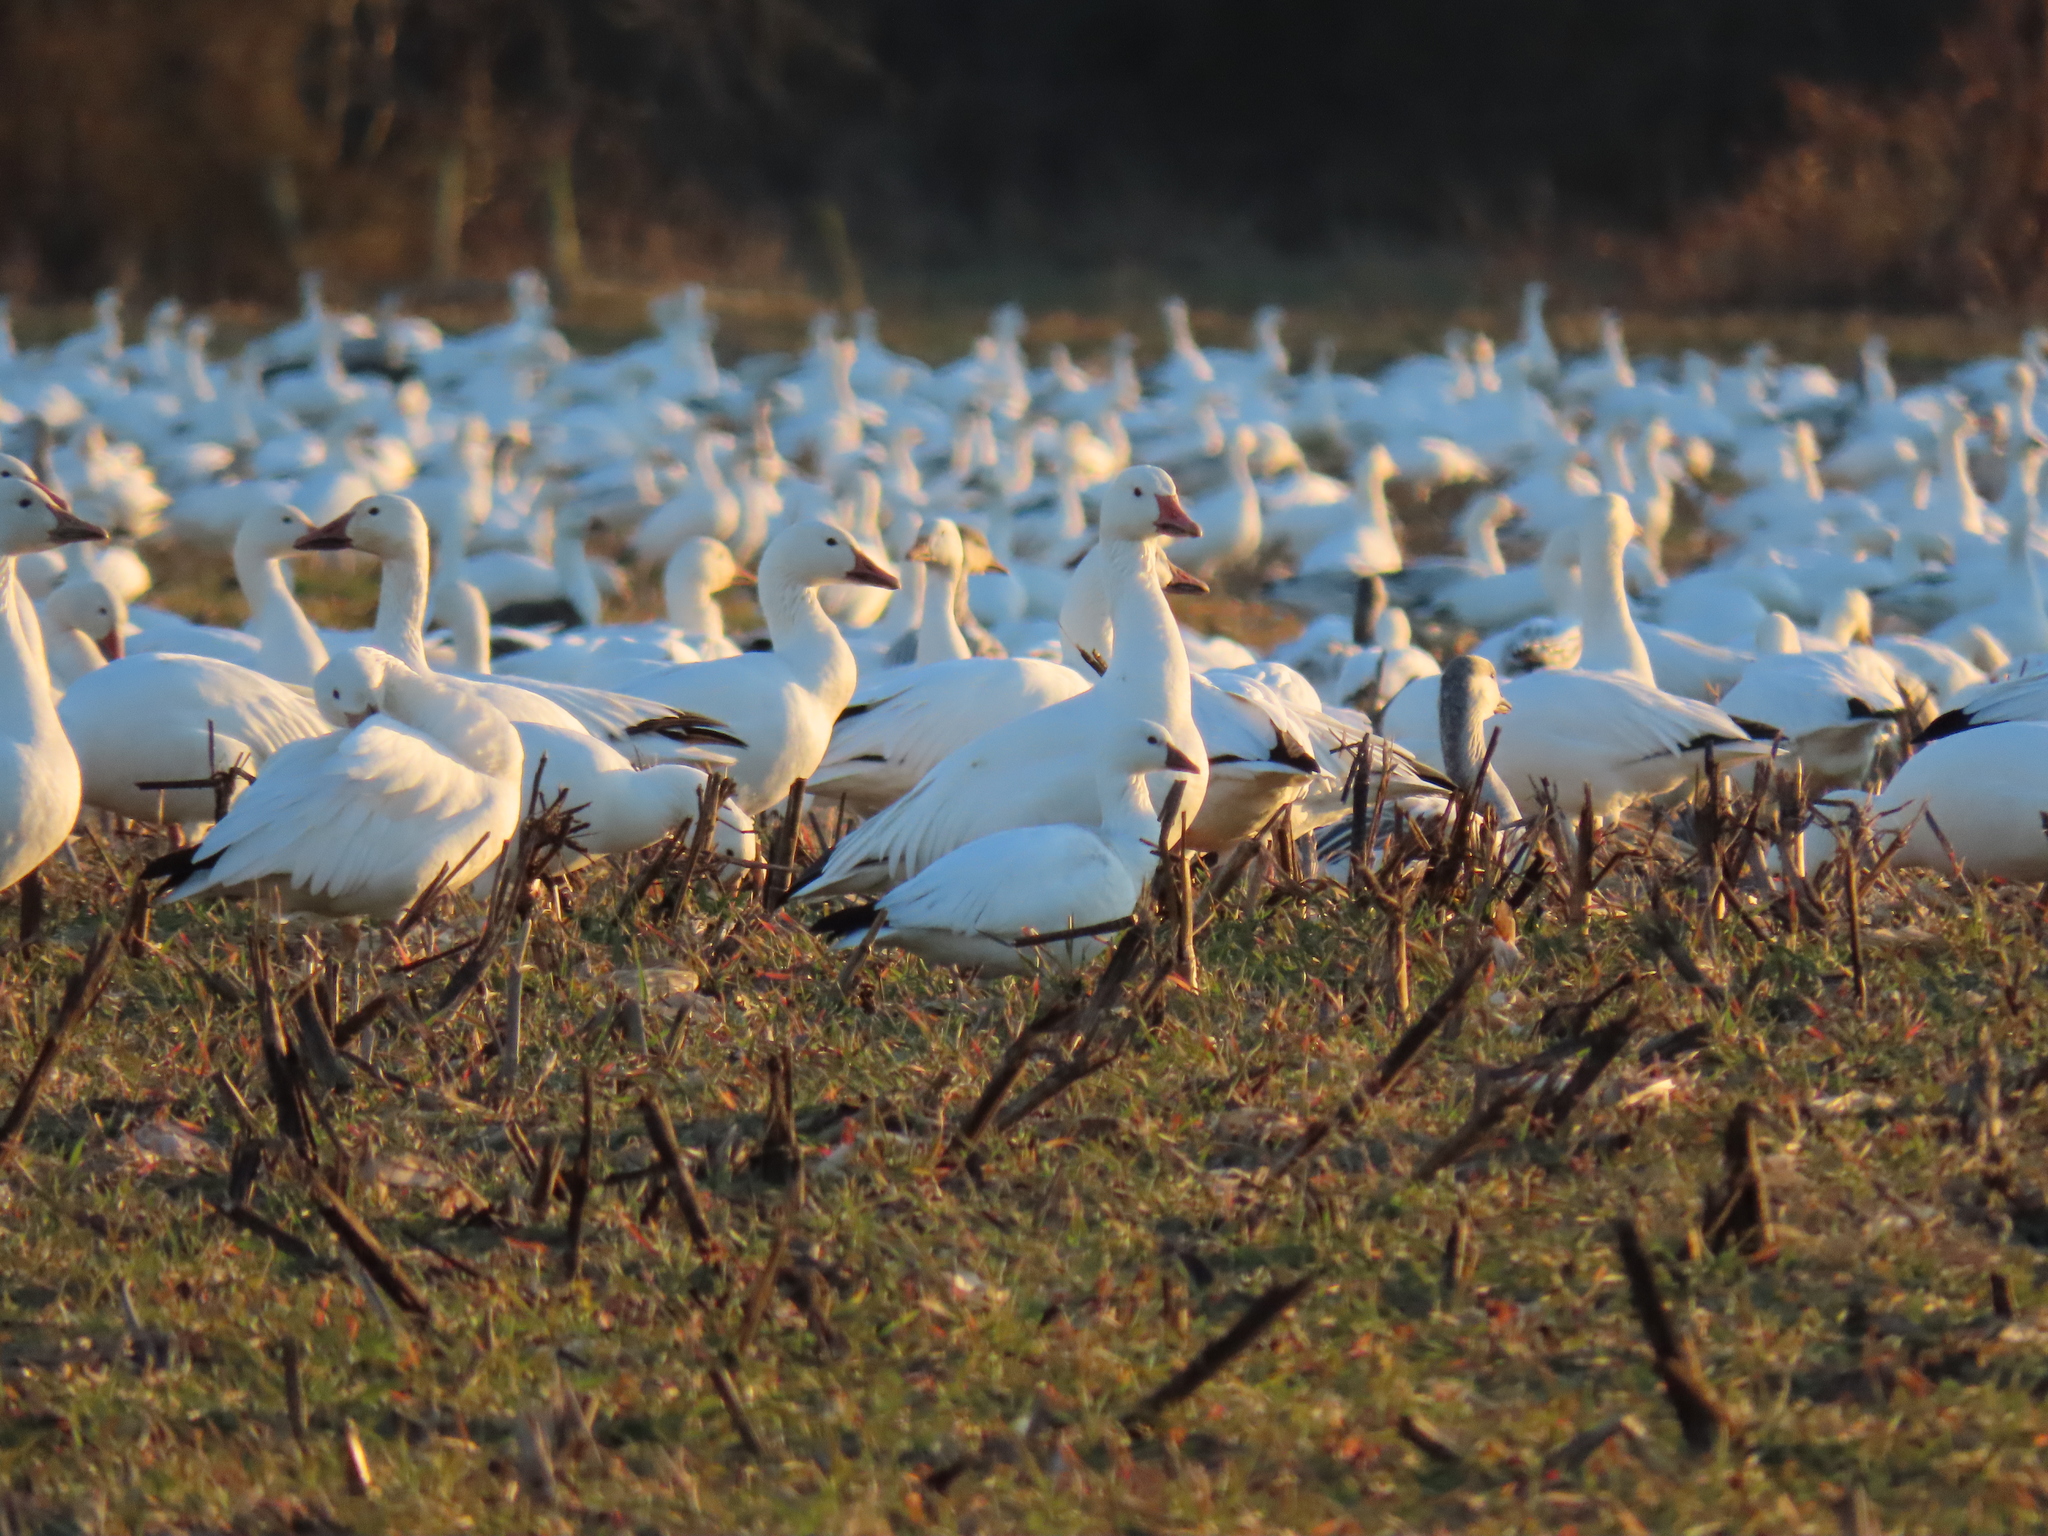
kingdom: Animalia
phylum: Chordata
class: Aves
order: Anseriformes
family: Anatidae
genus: Anser
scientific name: Anser rossii
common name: Ross's goose
